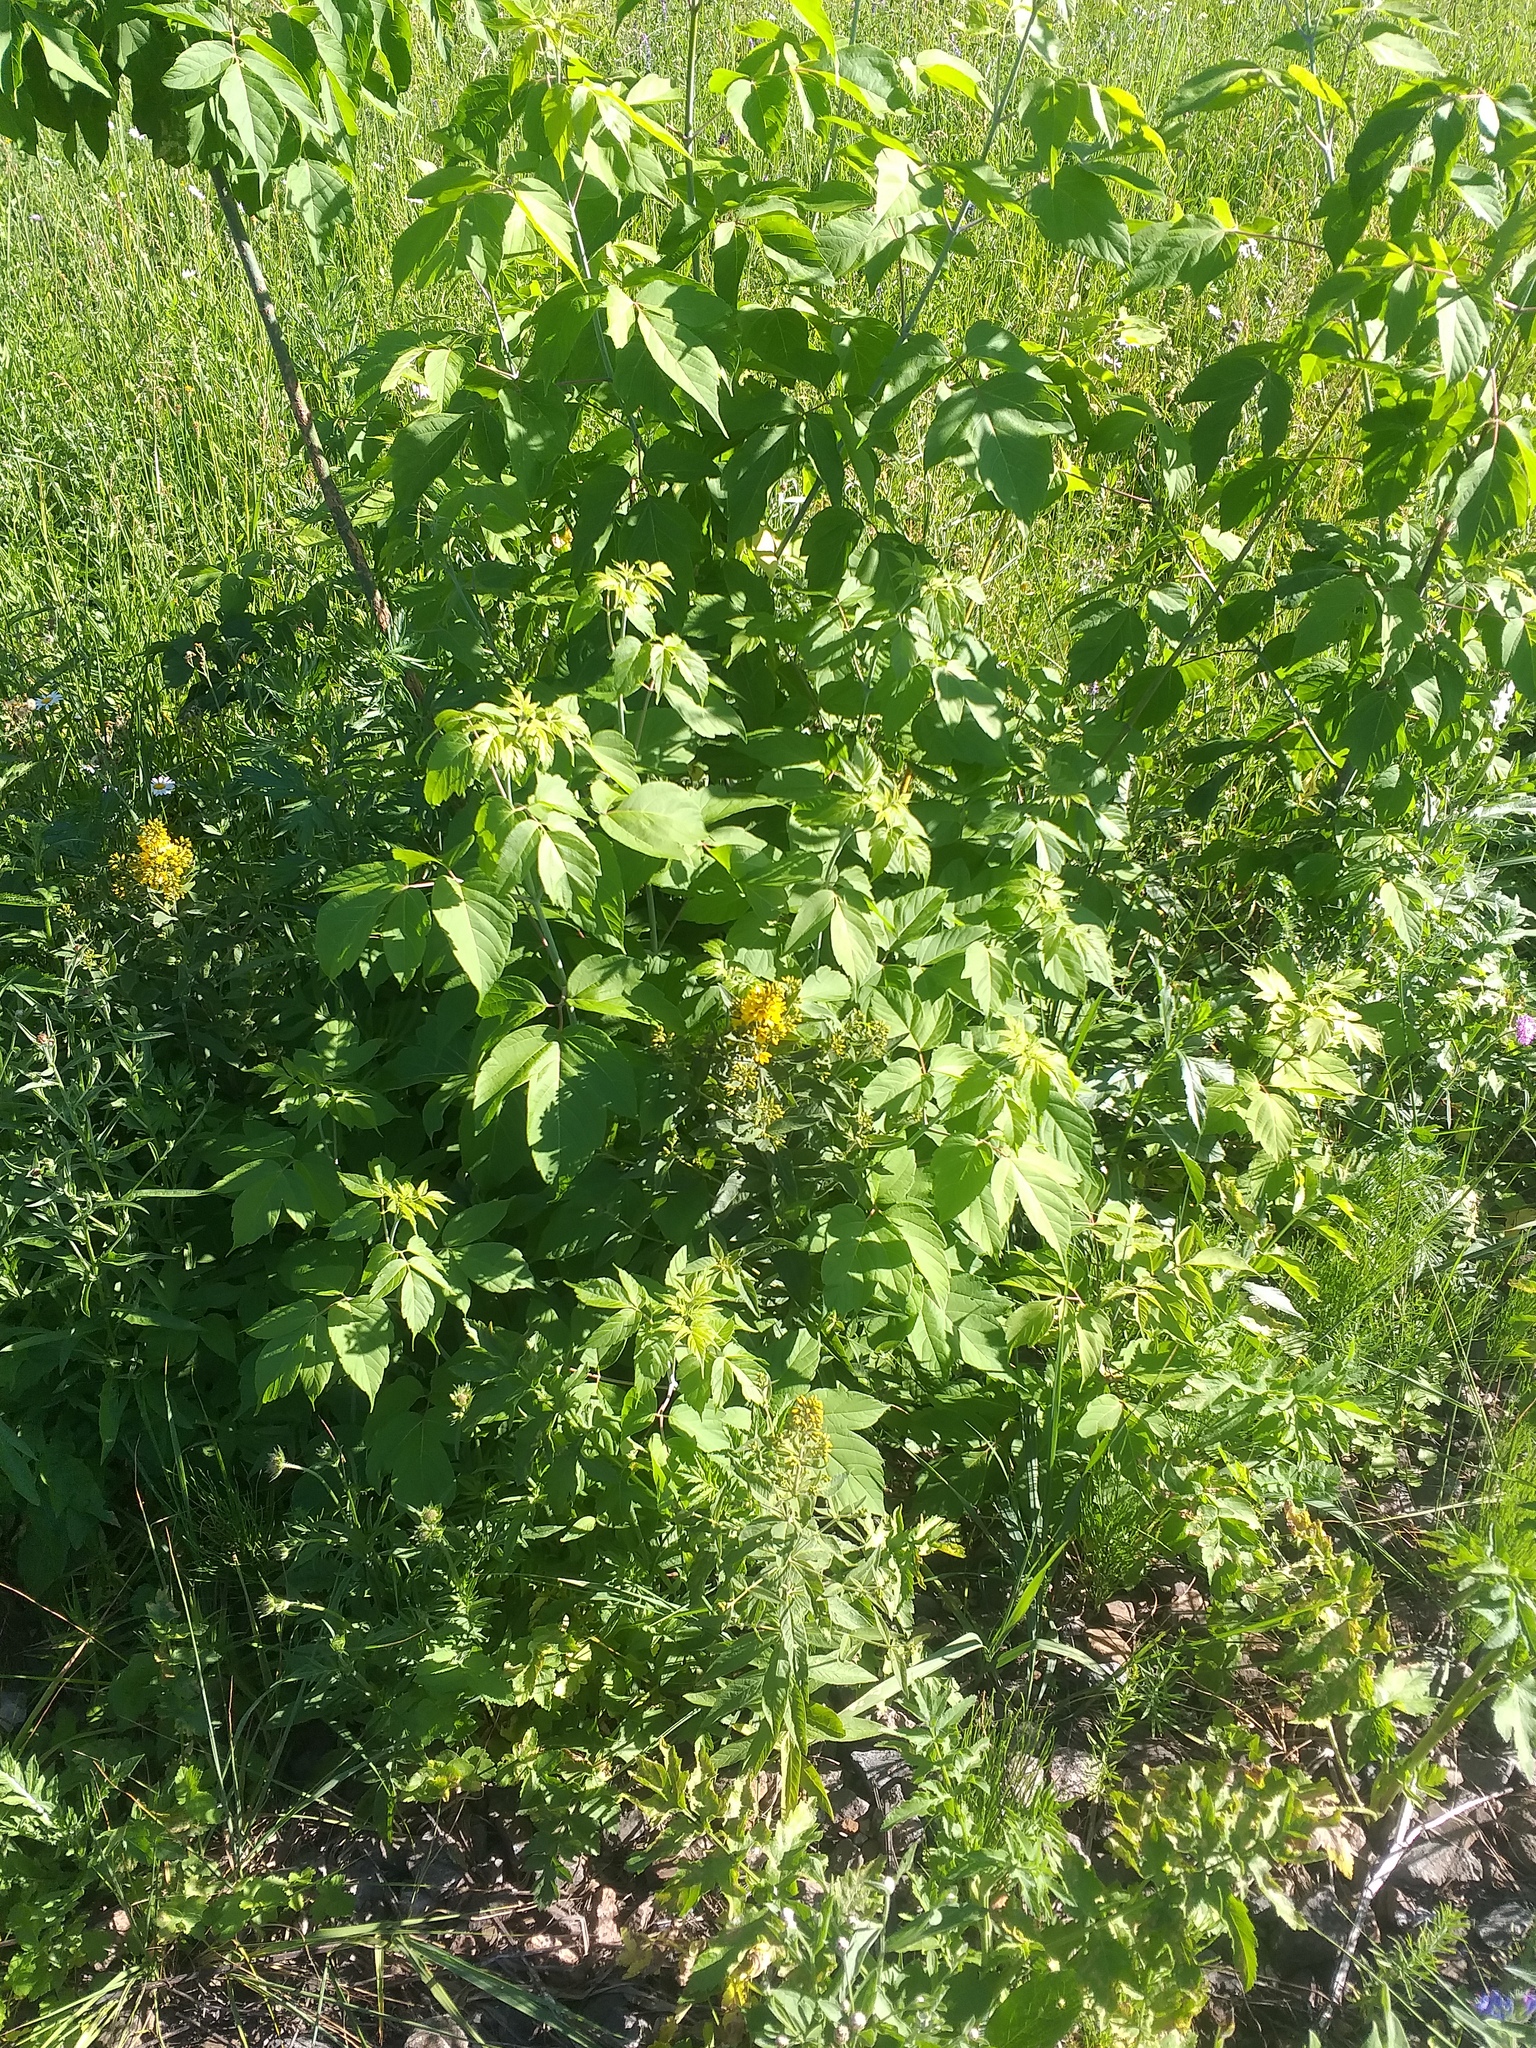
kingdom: Plantae
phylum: Tracheophyta
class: Magnoliopsida
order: Sapindales
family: Sapindaceae
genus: Acer
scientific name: Acer negundo
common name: Ashleaf maple
